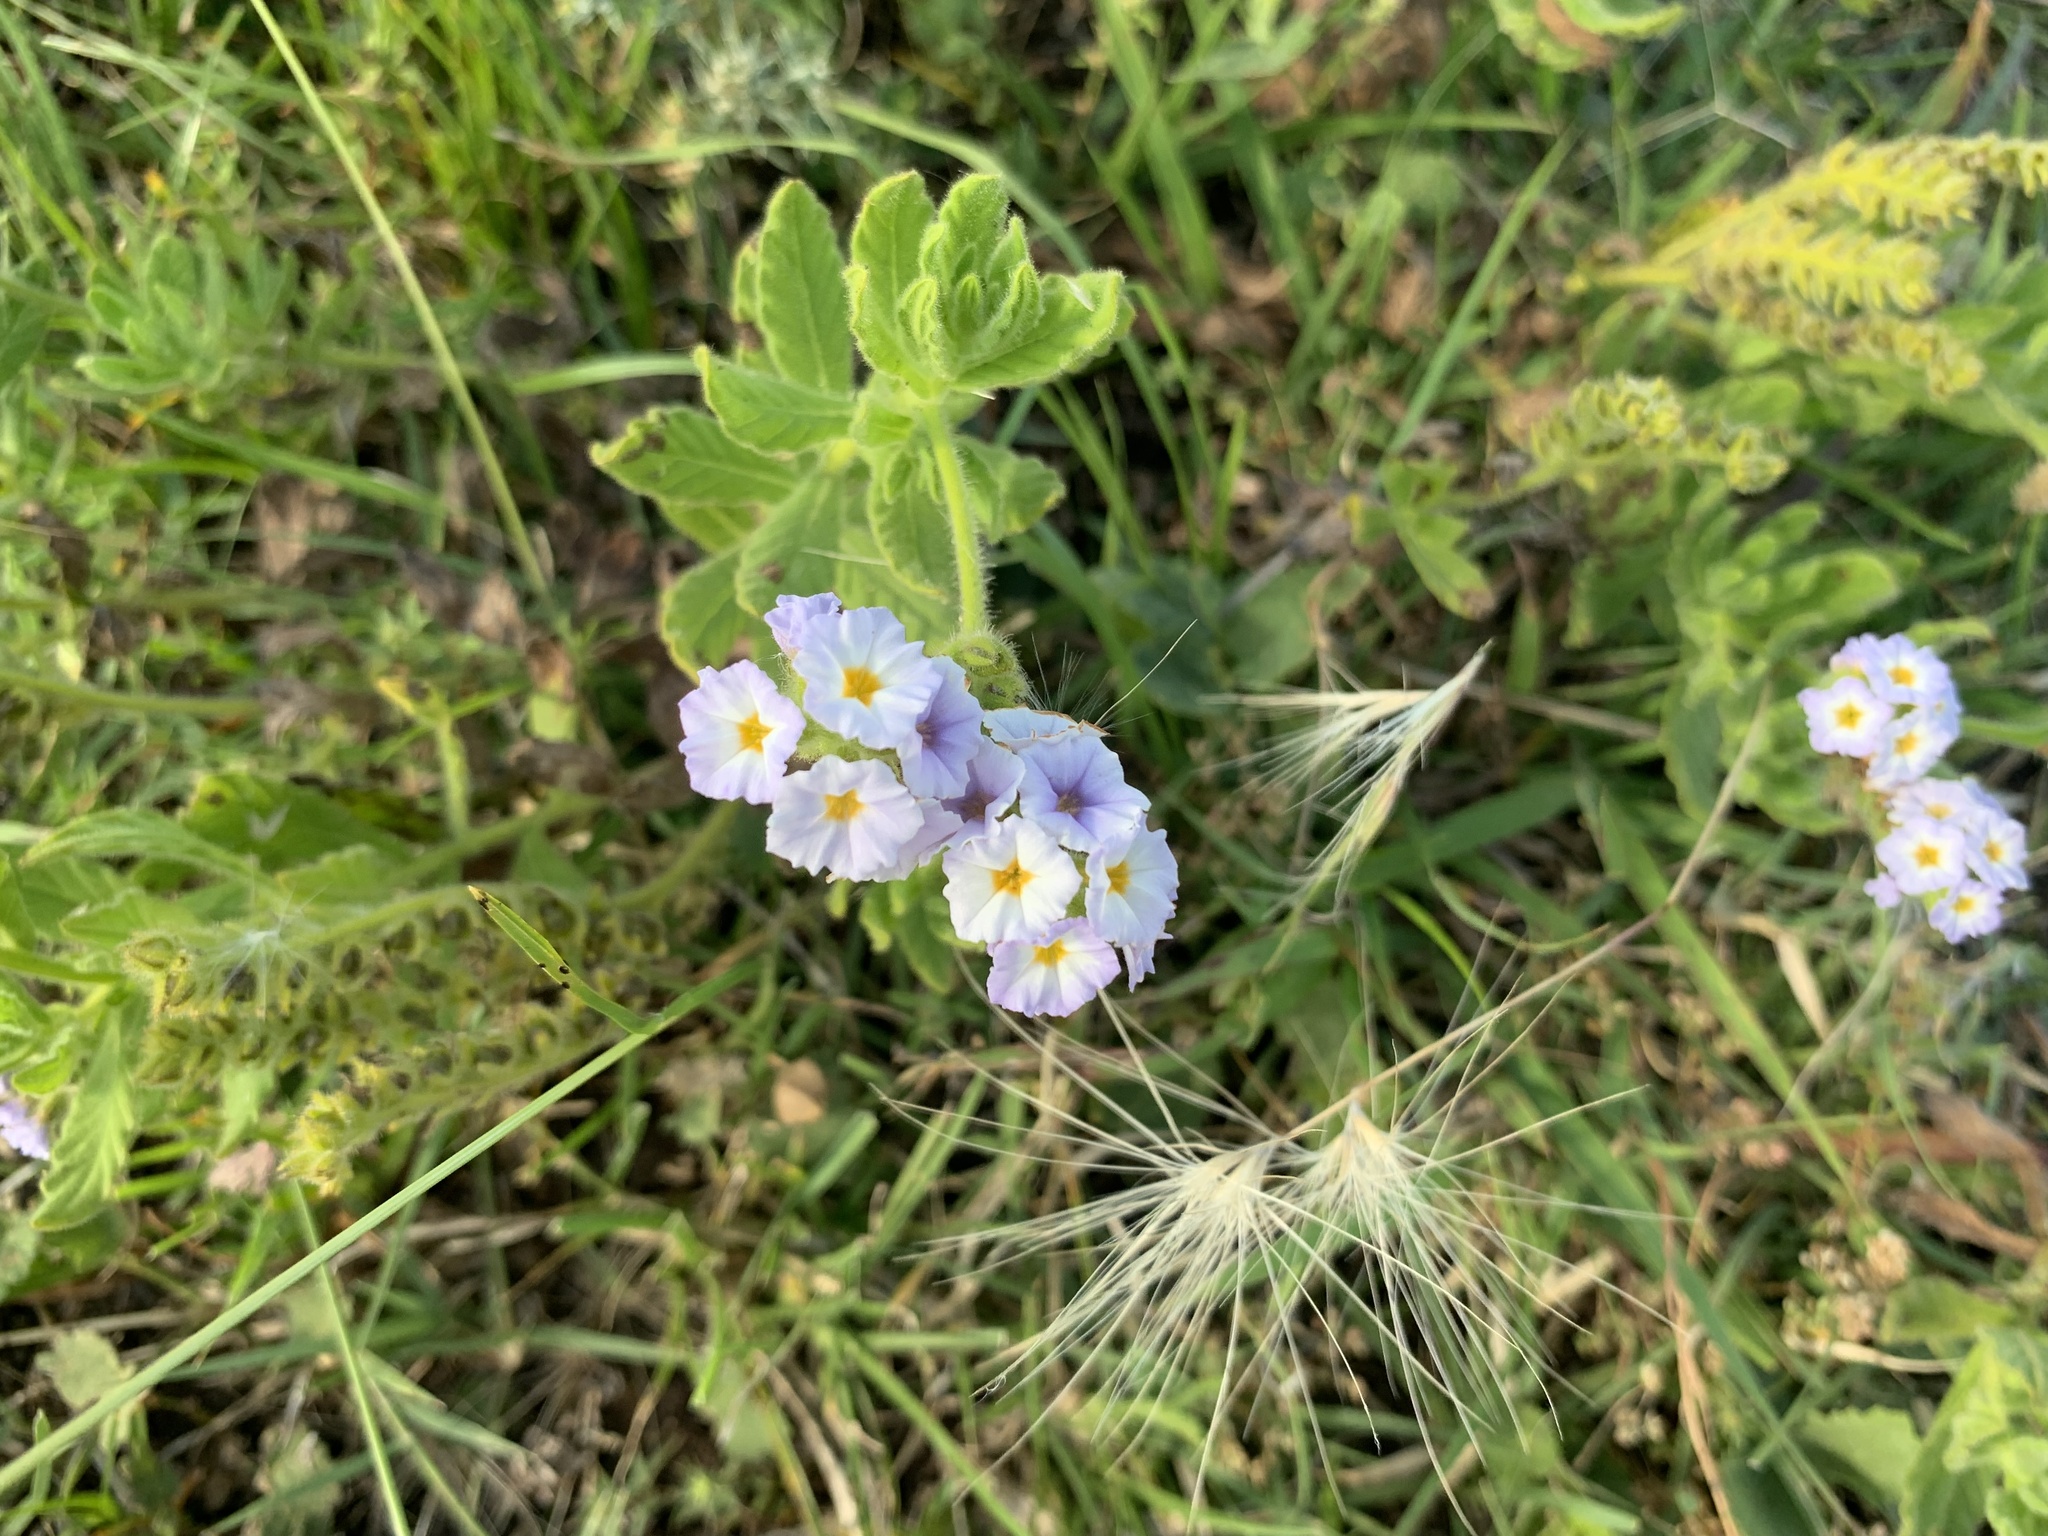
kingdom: Plantae
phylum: Tracheophyta
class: Magnoliopsida
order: Boraginales
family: Heliotropiaceae
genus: Heliotropium
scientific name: Heliotropium amplexicaule
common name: Clasping heliotrope
